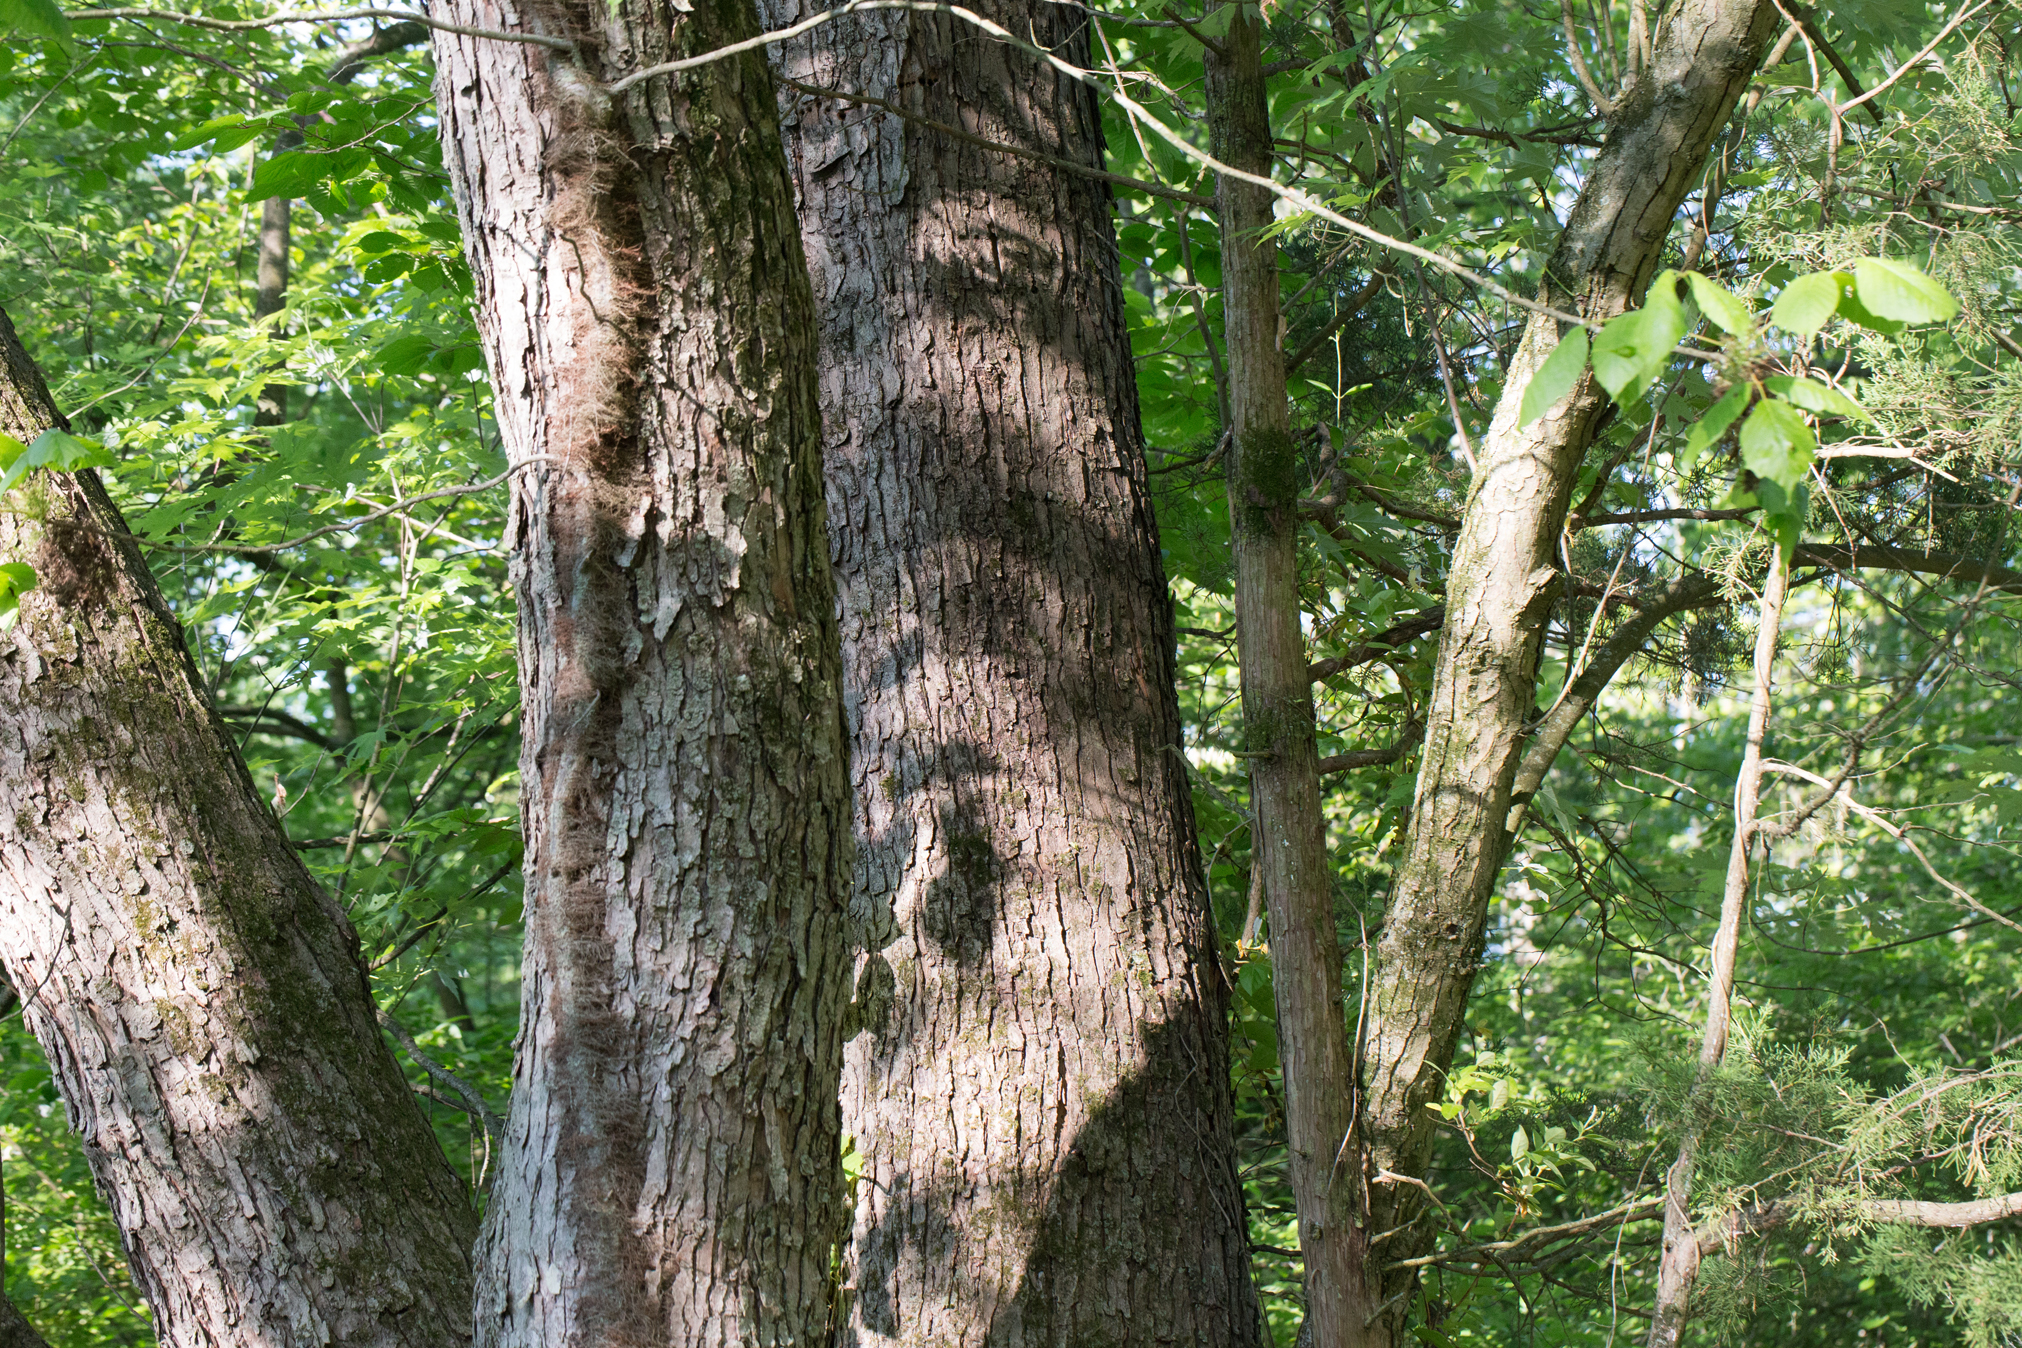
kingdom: Plantae
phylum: Tracheophyta
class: Magnoliopsida
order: Sapindales
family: Sapindaceae
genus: Acer
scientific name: Acer saccharinum
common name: Silver maple
